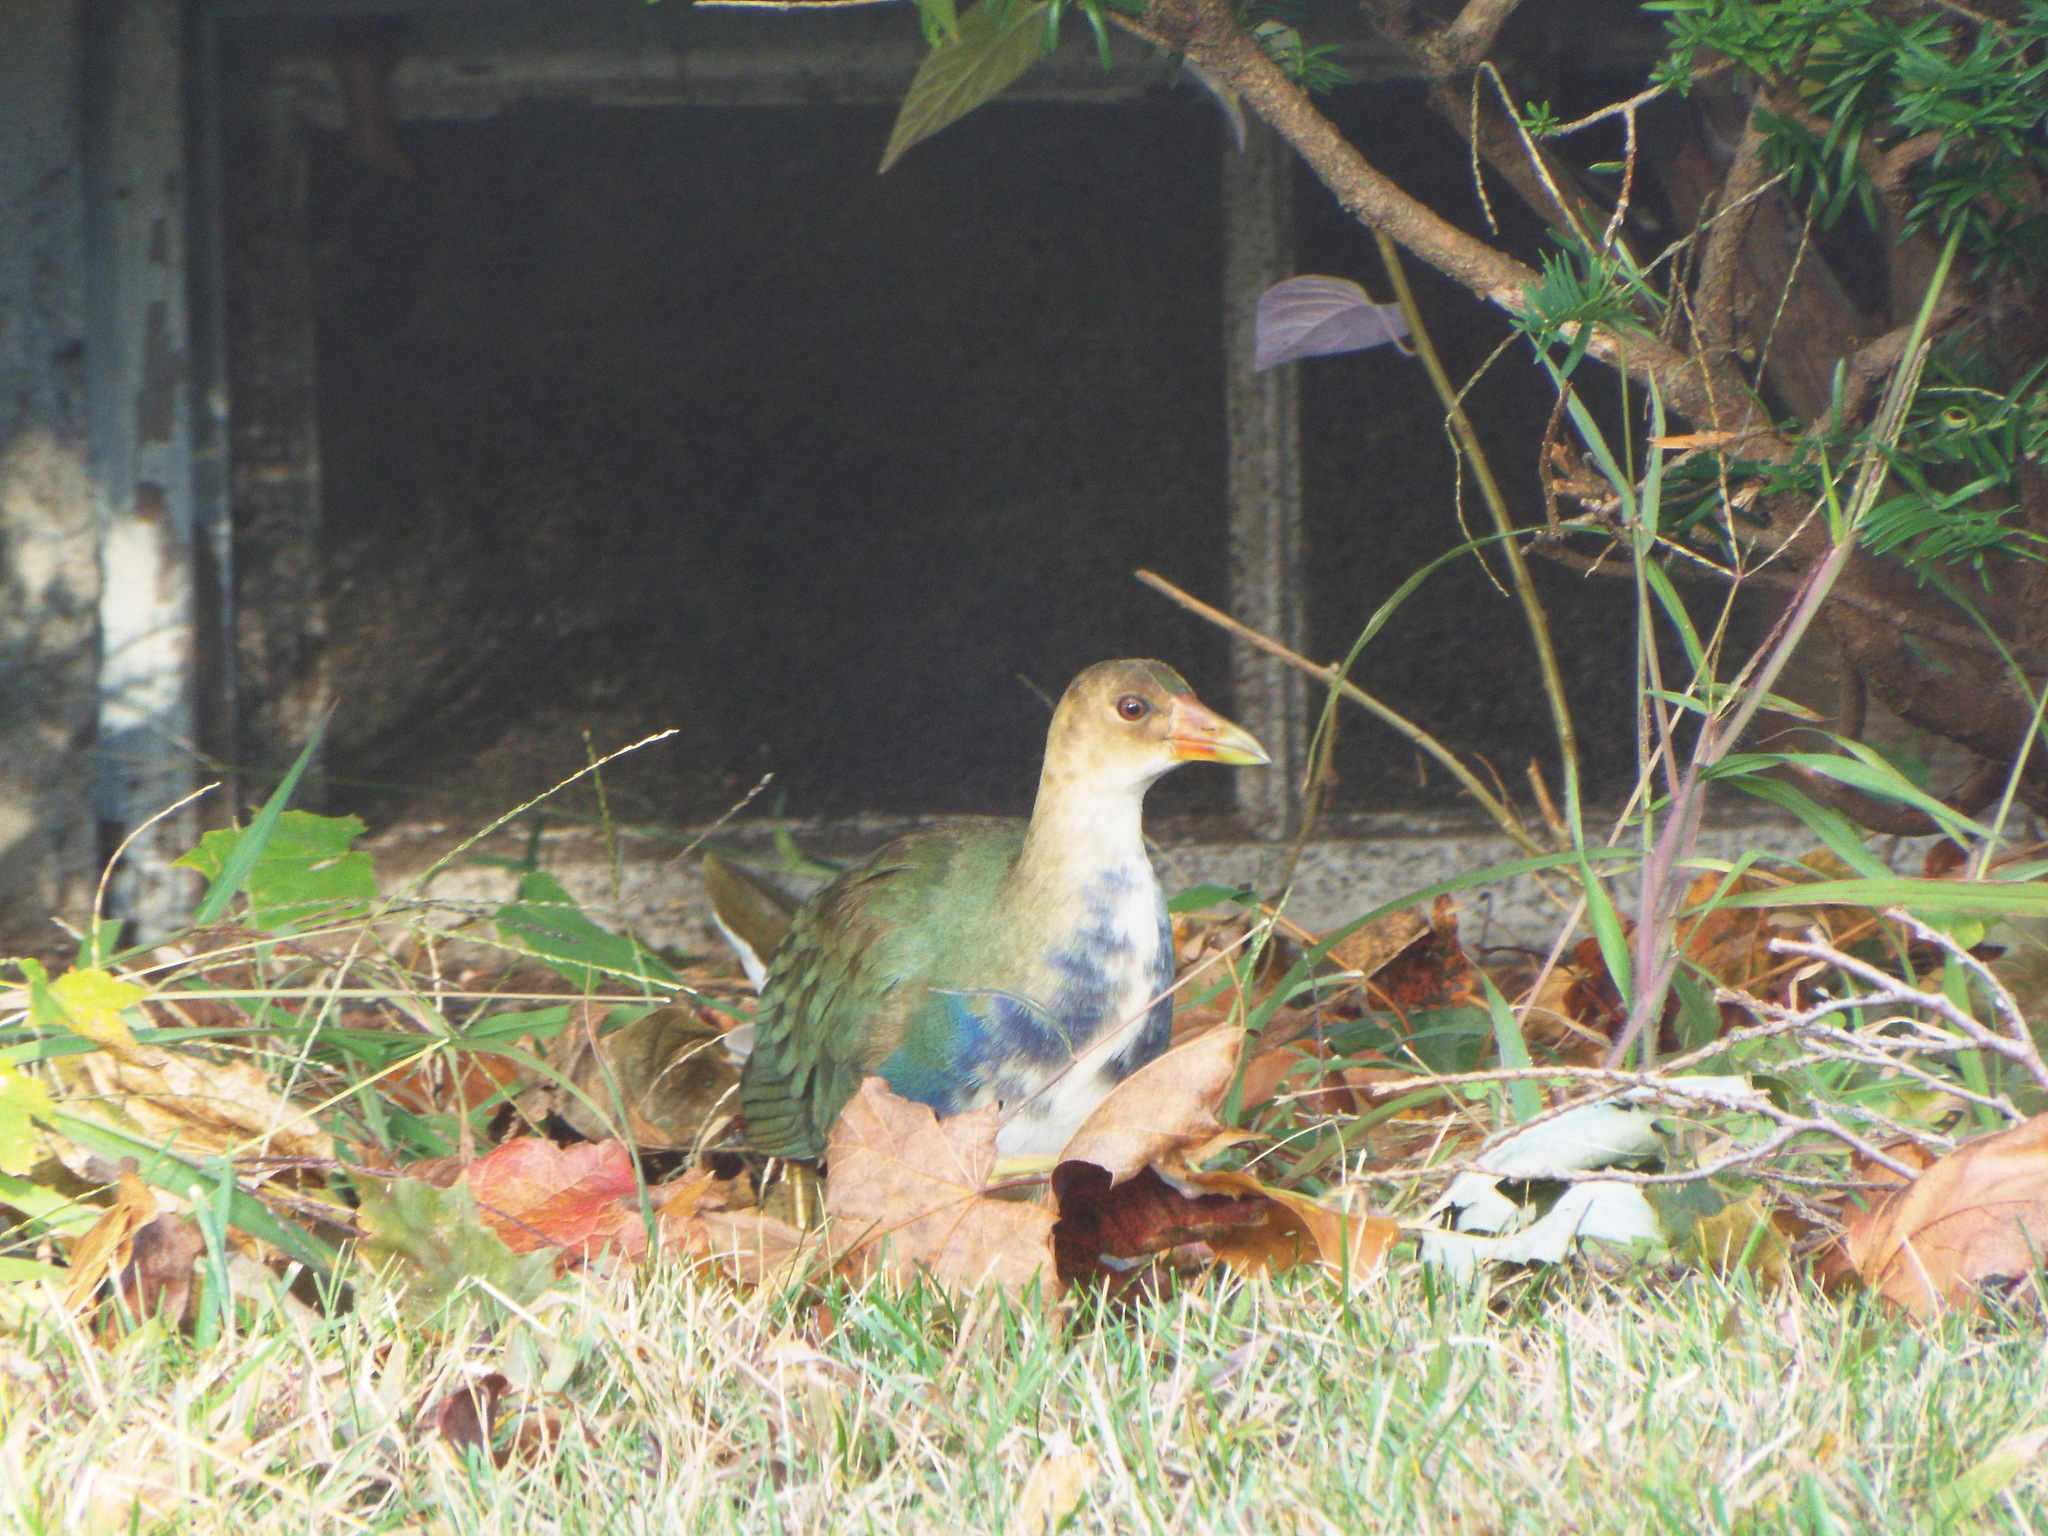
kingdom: Animalia
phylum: Chordata
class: Aves
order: Gruiformes
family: Rallidae
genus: Porphyrio
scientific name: Porphyrio martinica
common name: Purple gallinule
